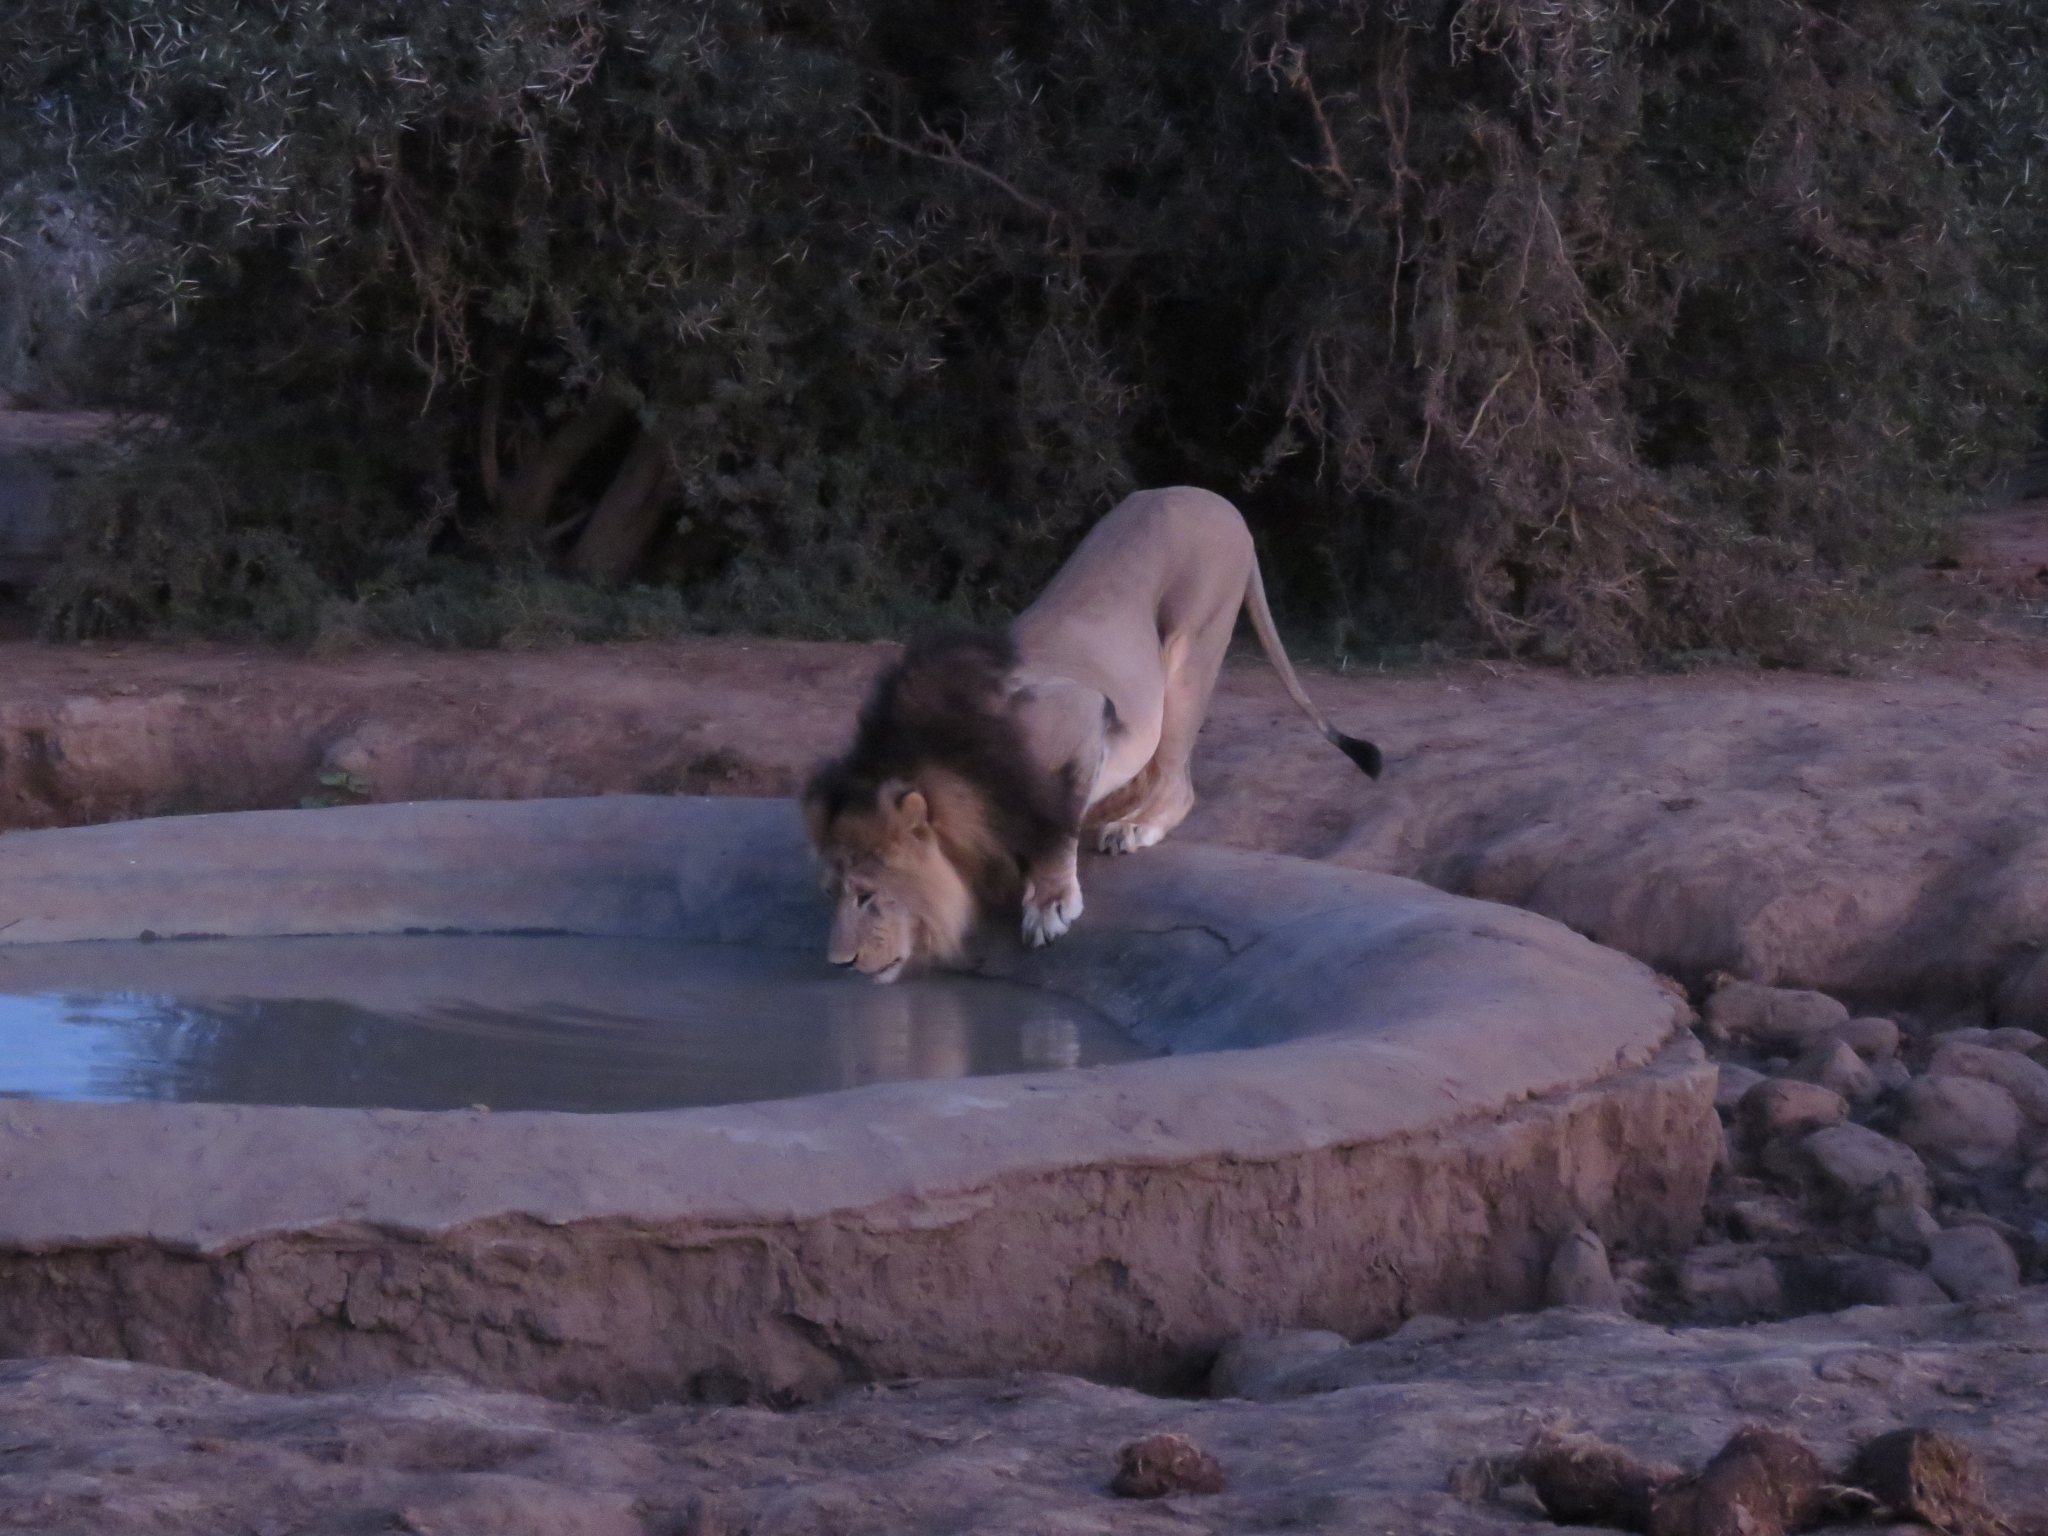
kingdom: Animalia
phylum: Chordata
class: Mammalia
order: Carnivora
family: Felidae
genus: Panthera
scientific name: Panthera leo
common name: Lion
